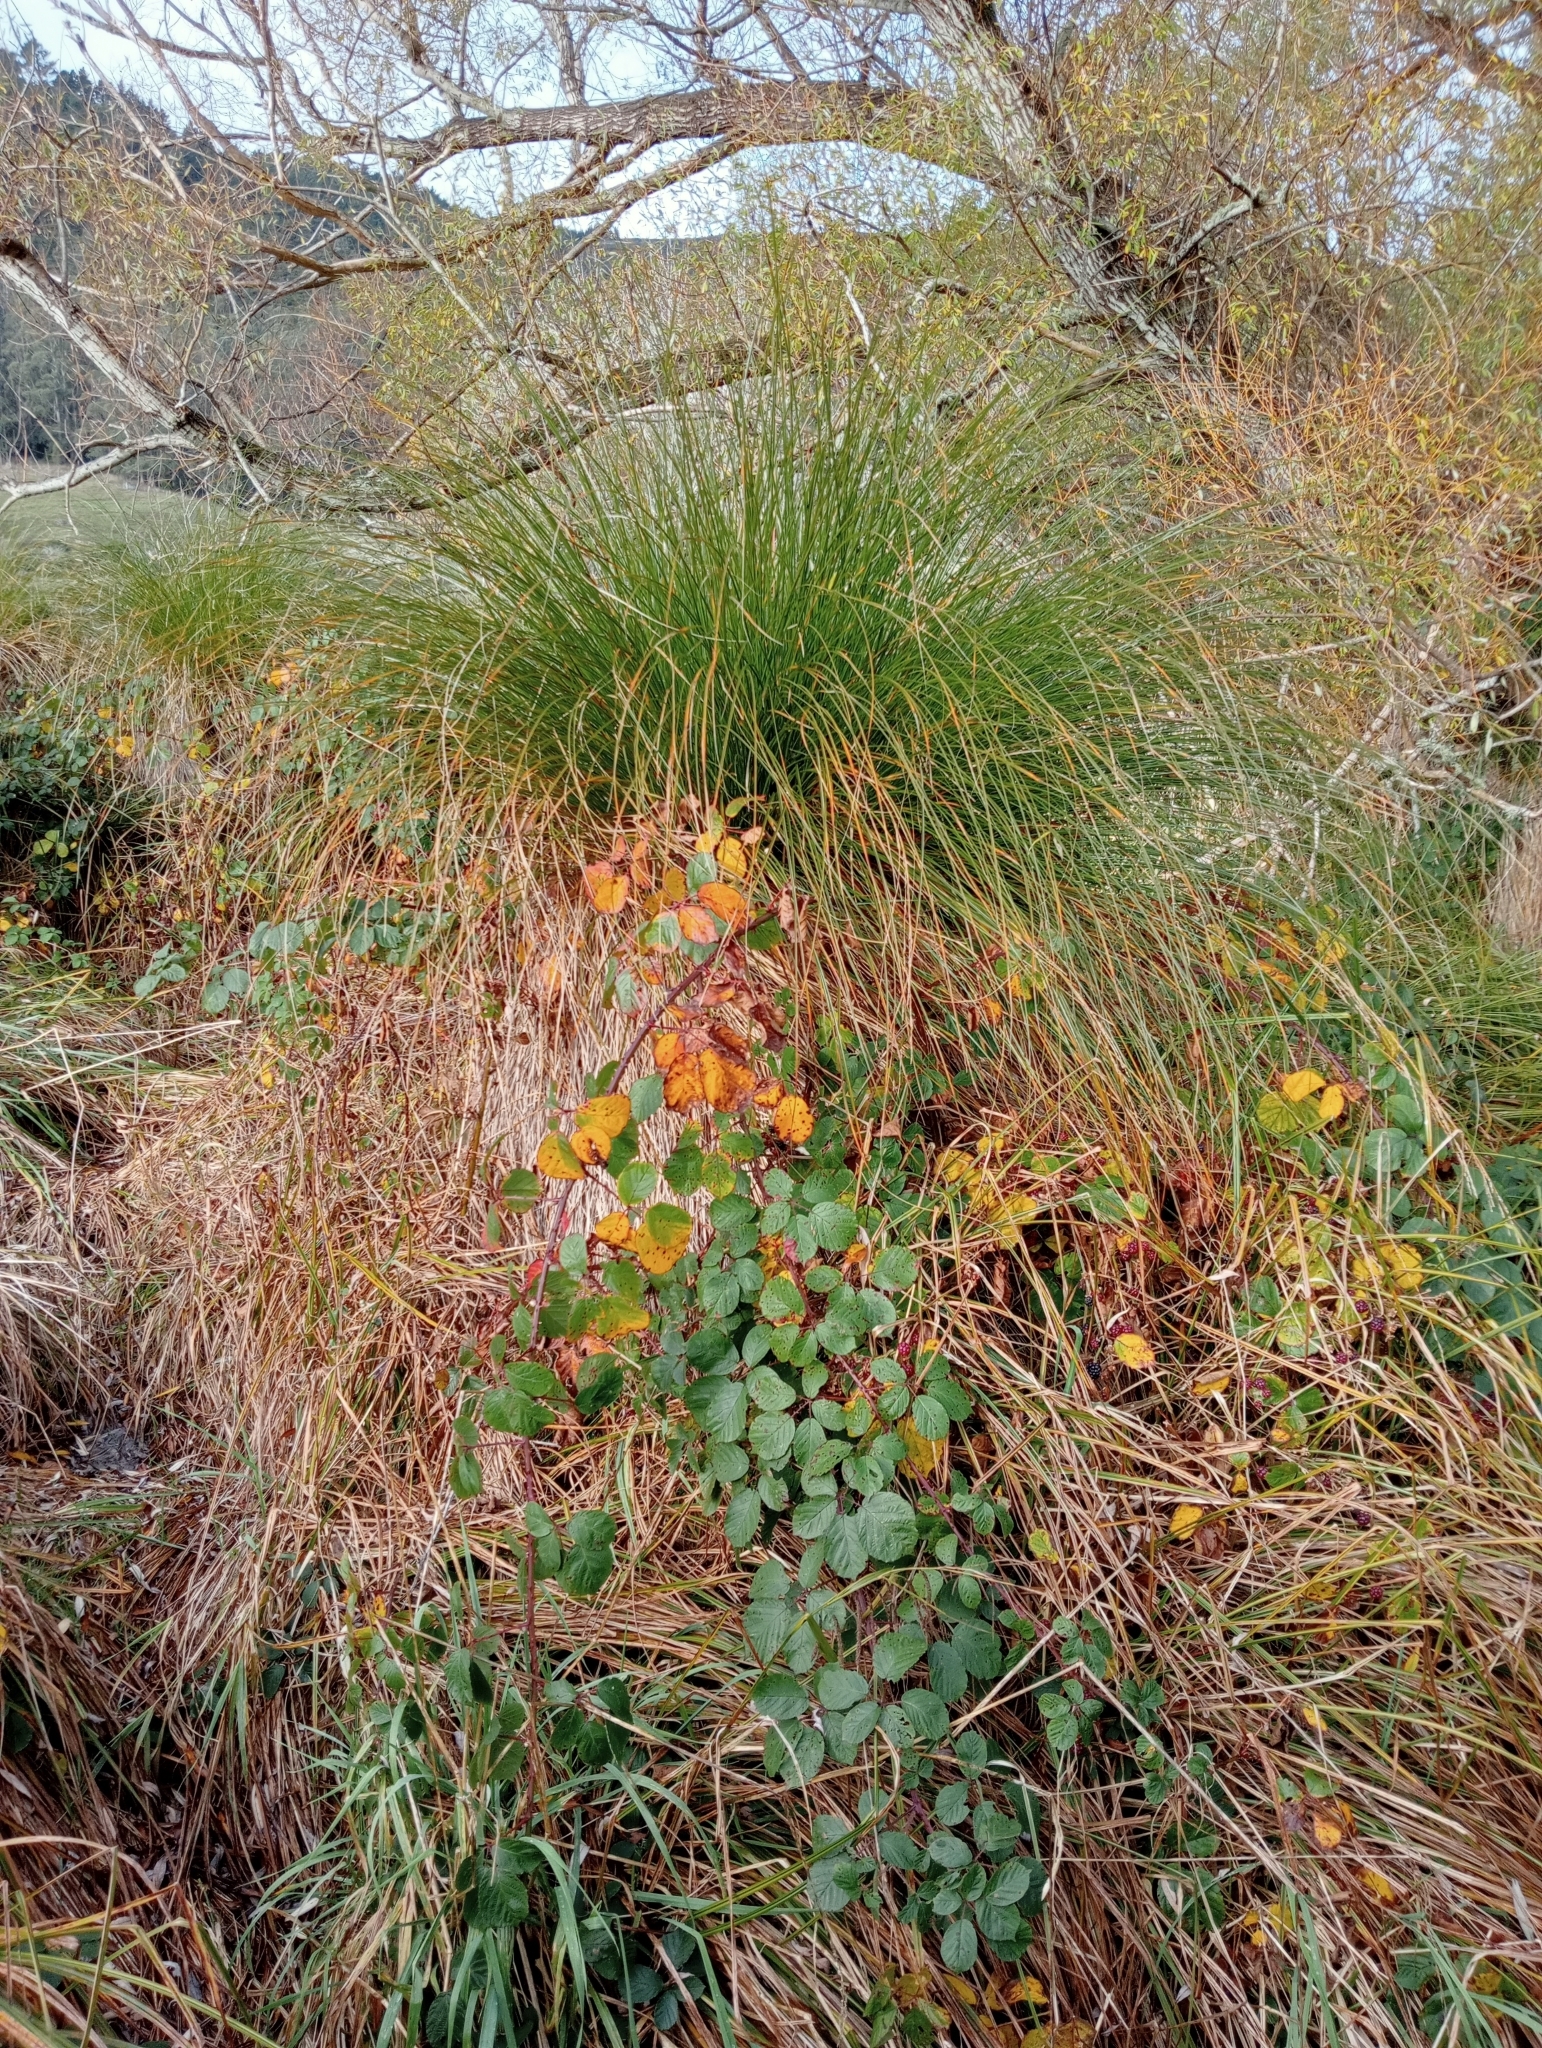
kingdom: Plantae
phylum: Tracheophyta
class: Liliopsida
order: Poales
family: Cyperaceae
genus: Carex
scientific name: Carex secta
